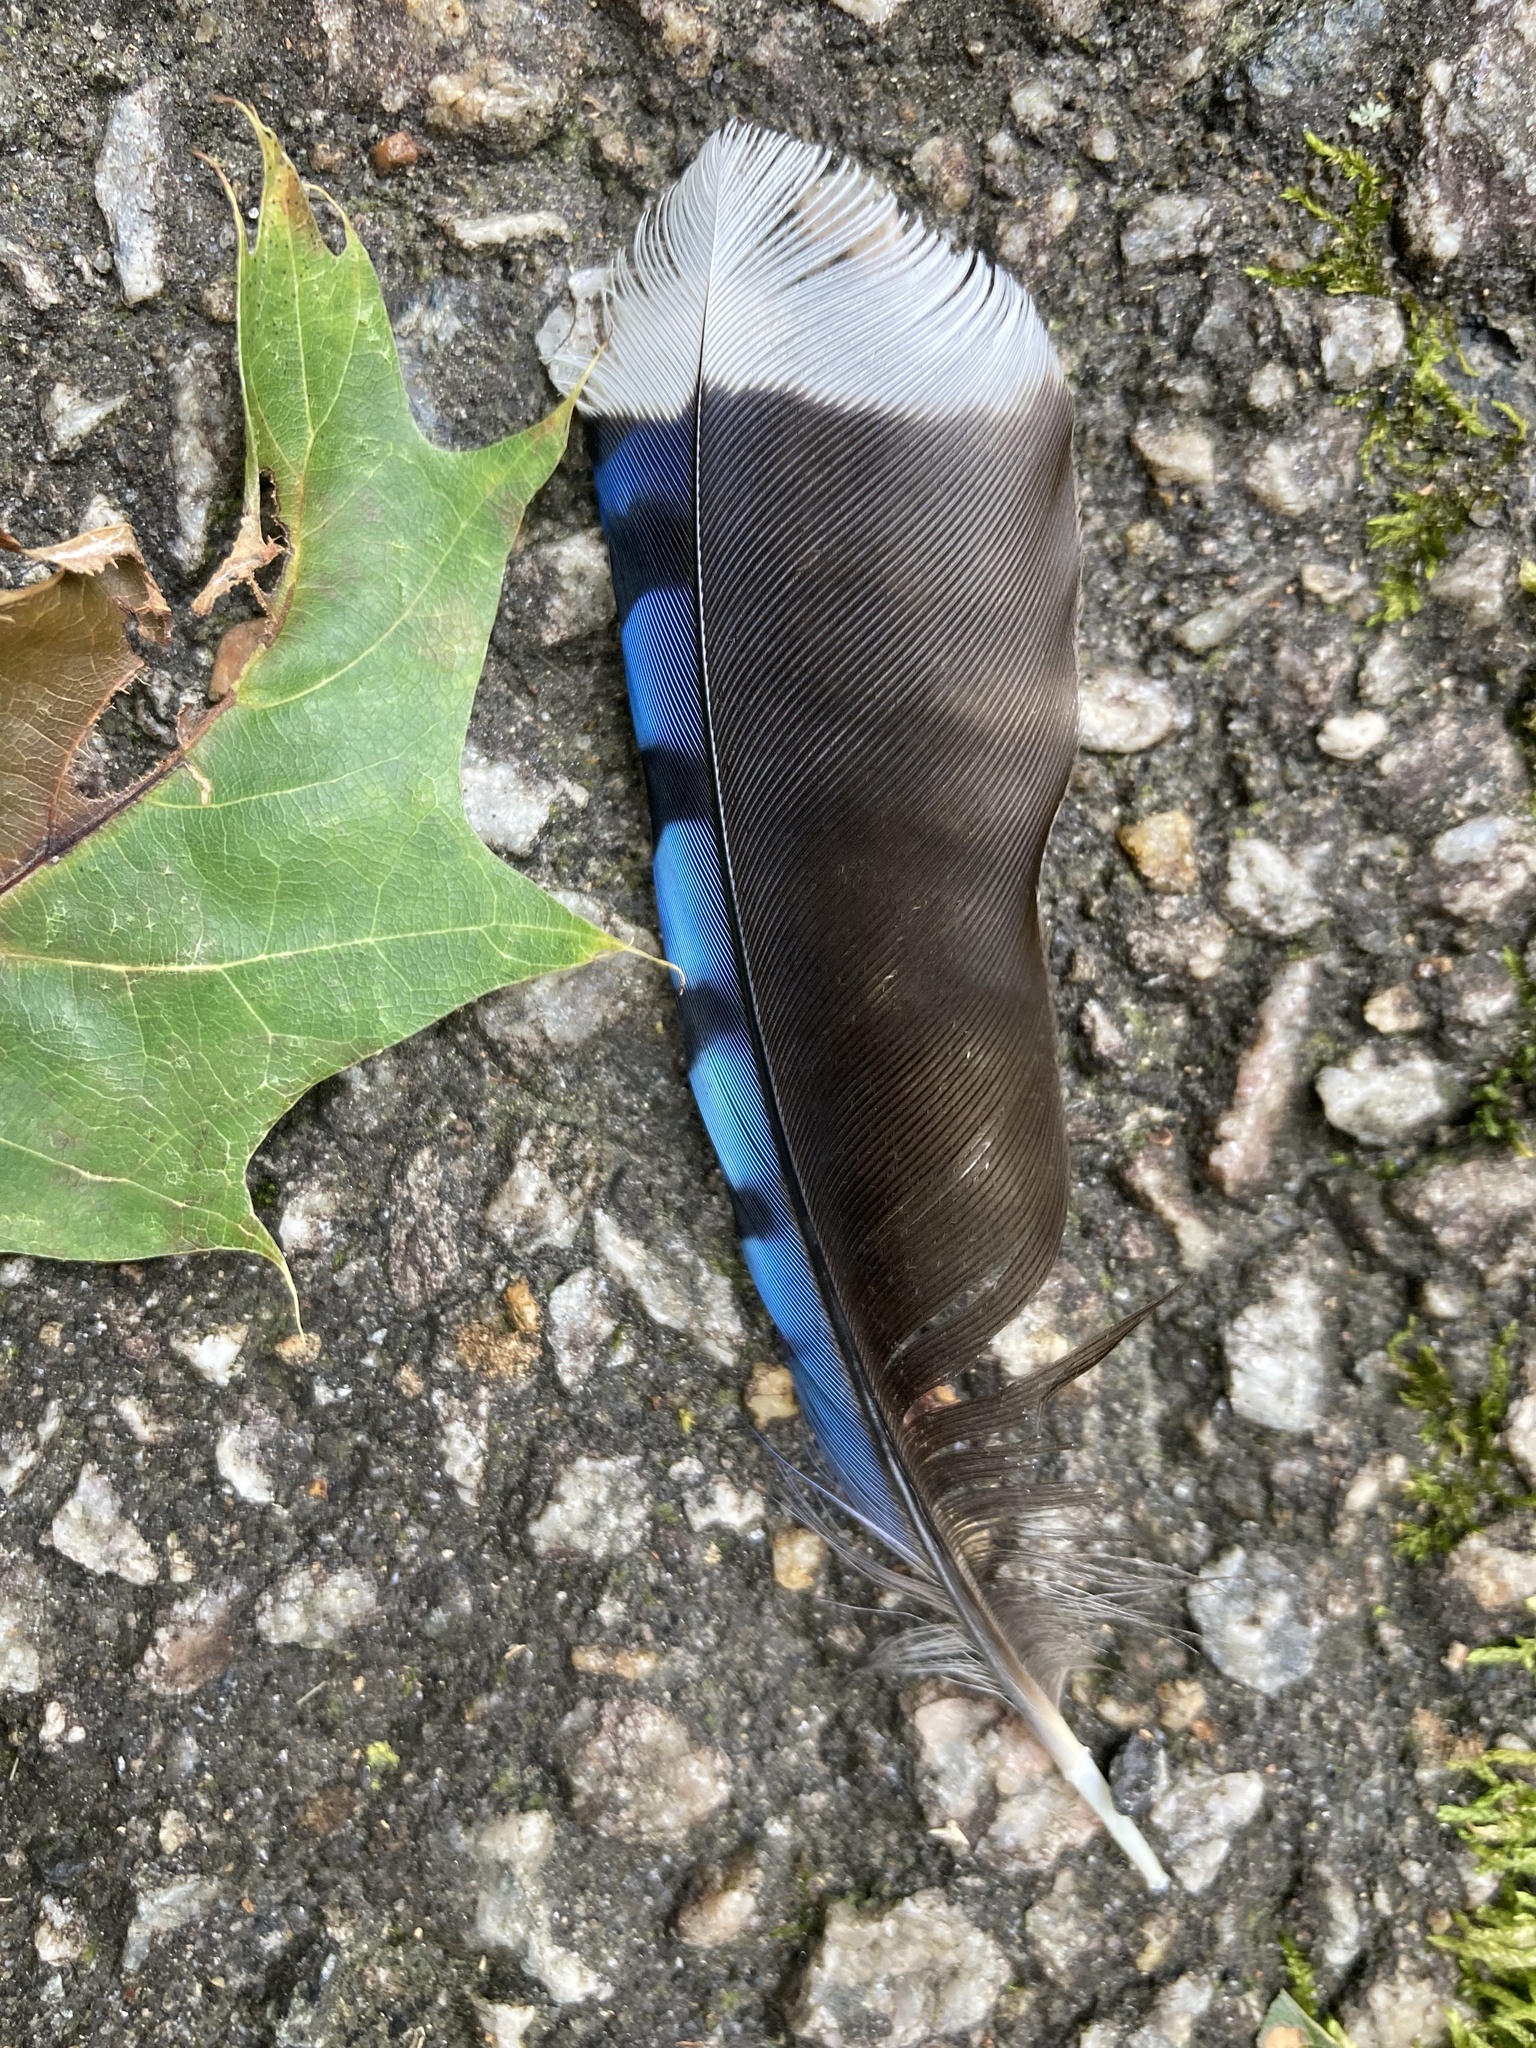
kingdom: Animalia
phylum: Chordata
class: Aves
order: Passeriformes
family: Corvidae
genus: Cyanocitta
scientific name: Cyanocitta cristata
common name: Blue jay
